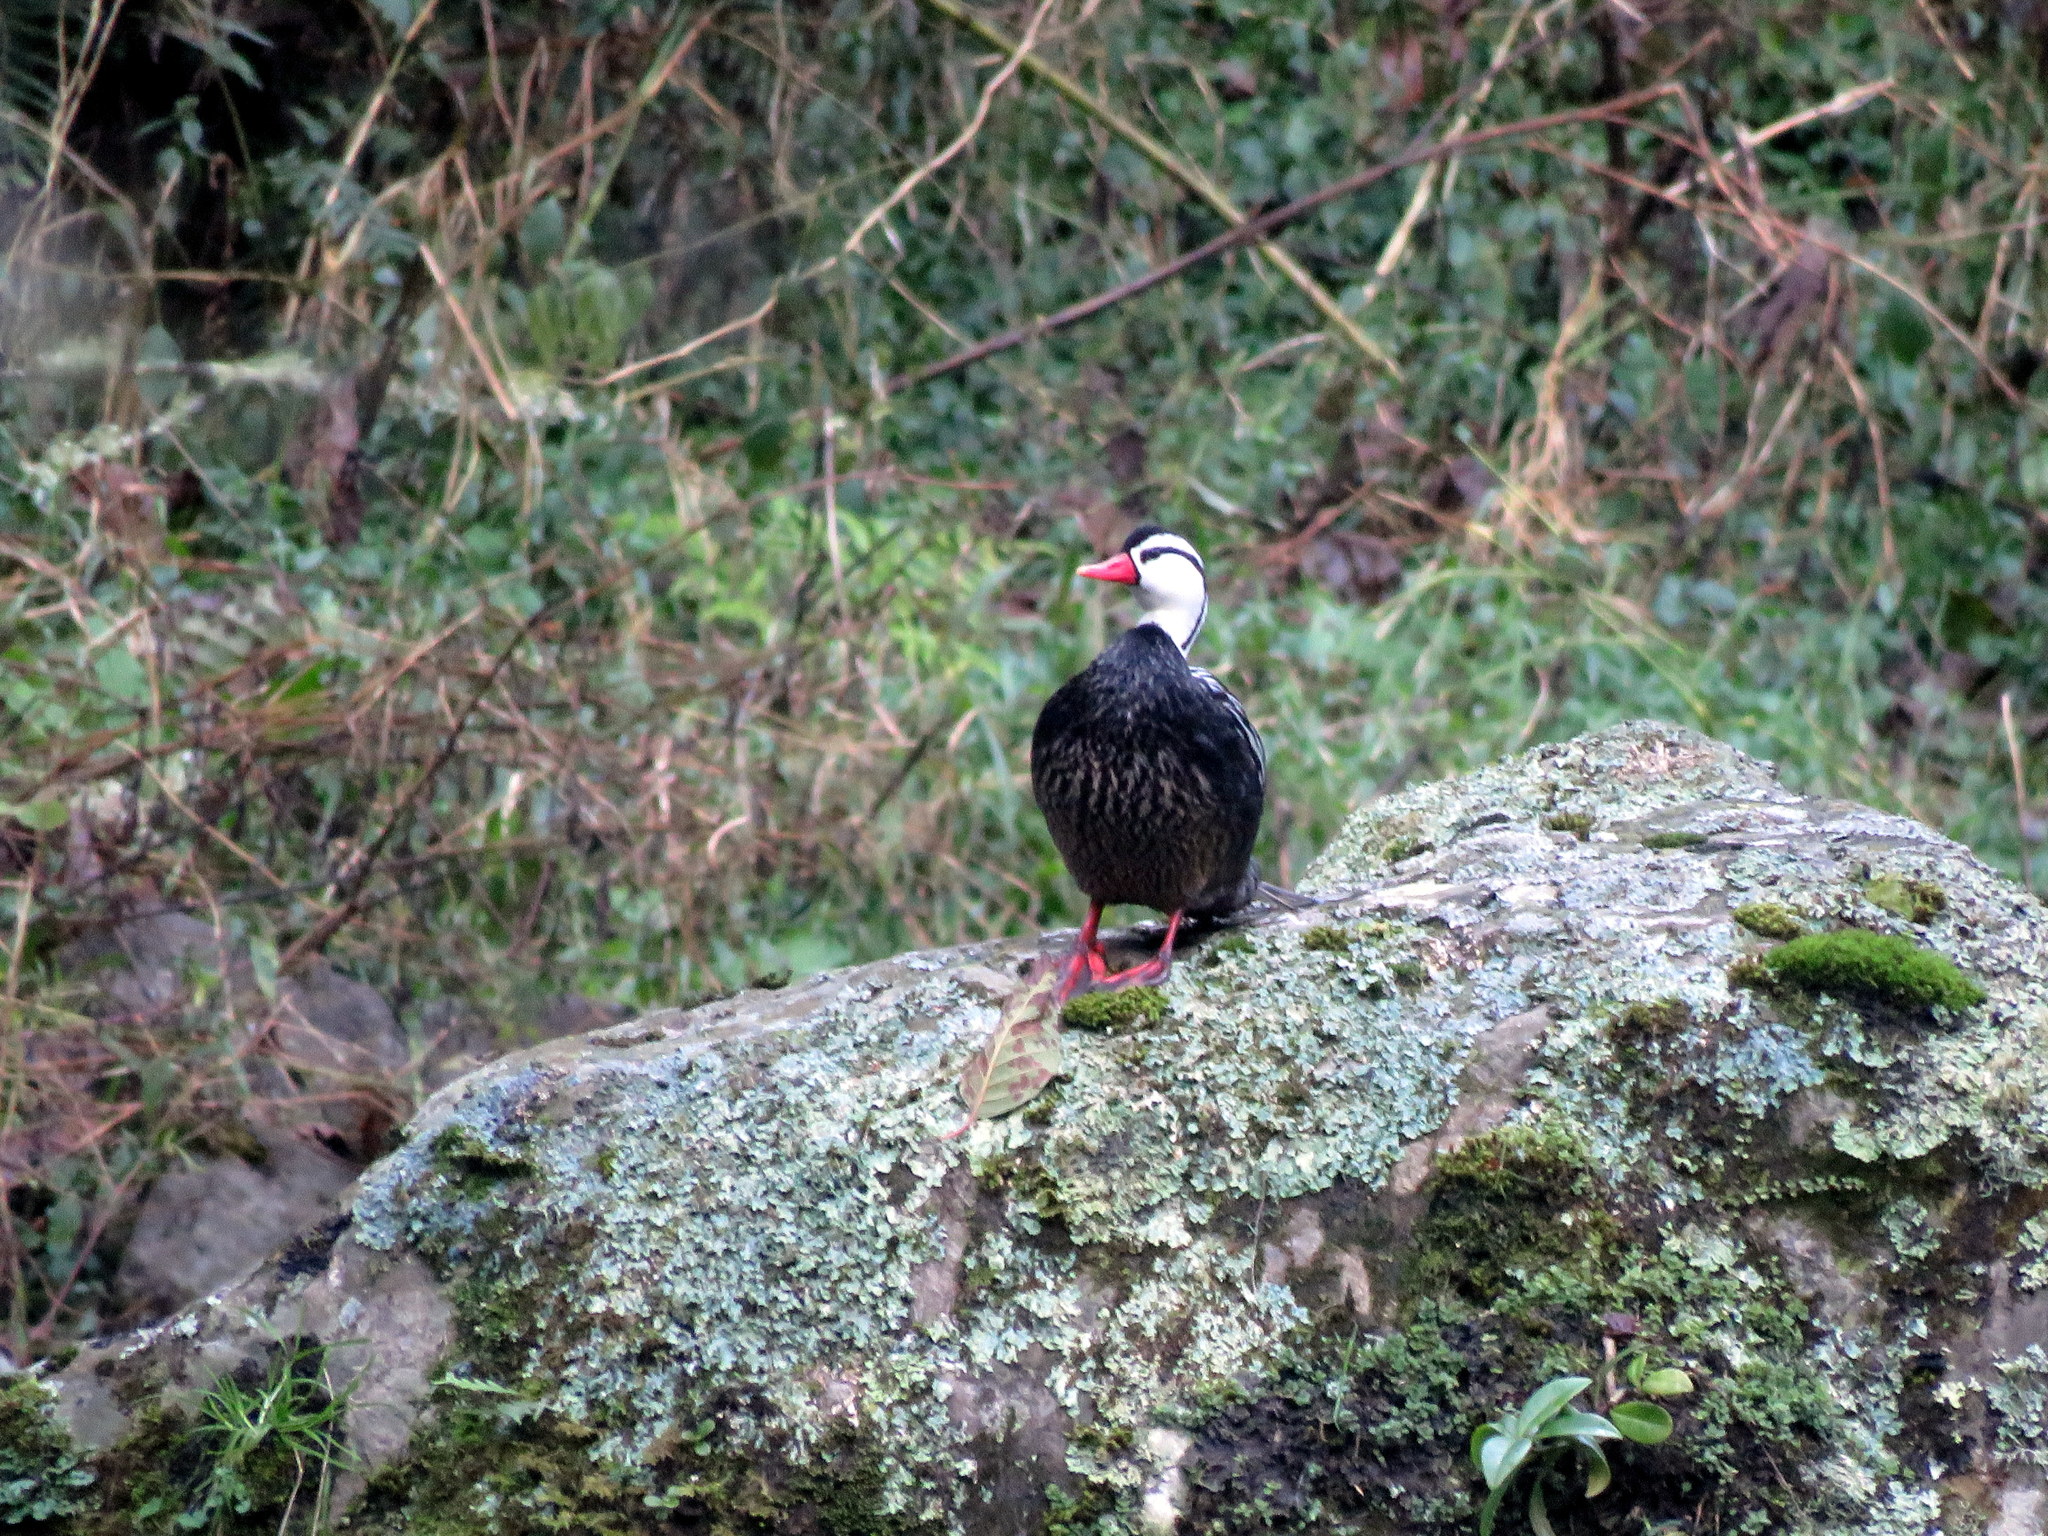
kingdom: Animalia
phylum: Chordata
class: Aves
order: Anseriformes
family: Anatidae
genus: Merganetta
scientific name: Merganetta armata
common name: Torrent duck
